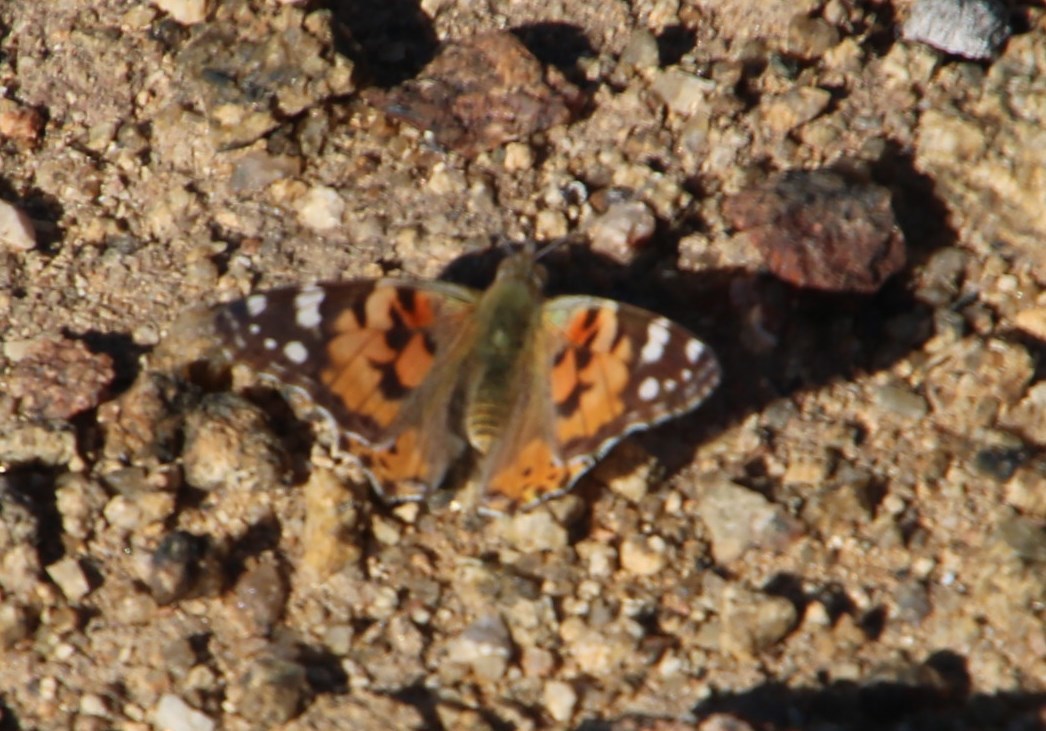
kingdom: Animalia
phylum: Arthropoda
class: Insecta
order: Lepidoptera
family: Nymphalidae
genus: Vanessa
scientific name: Vanessa cardui
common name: Painted lady
